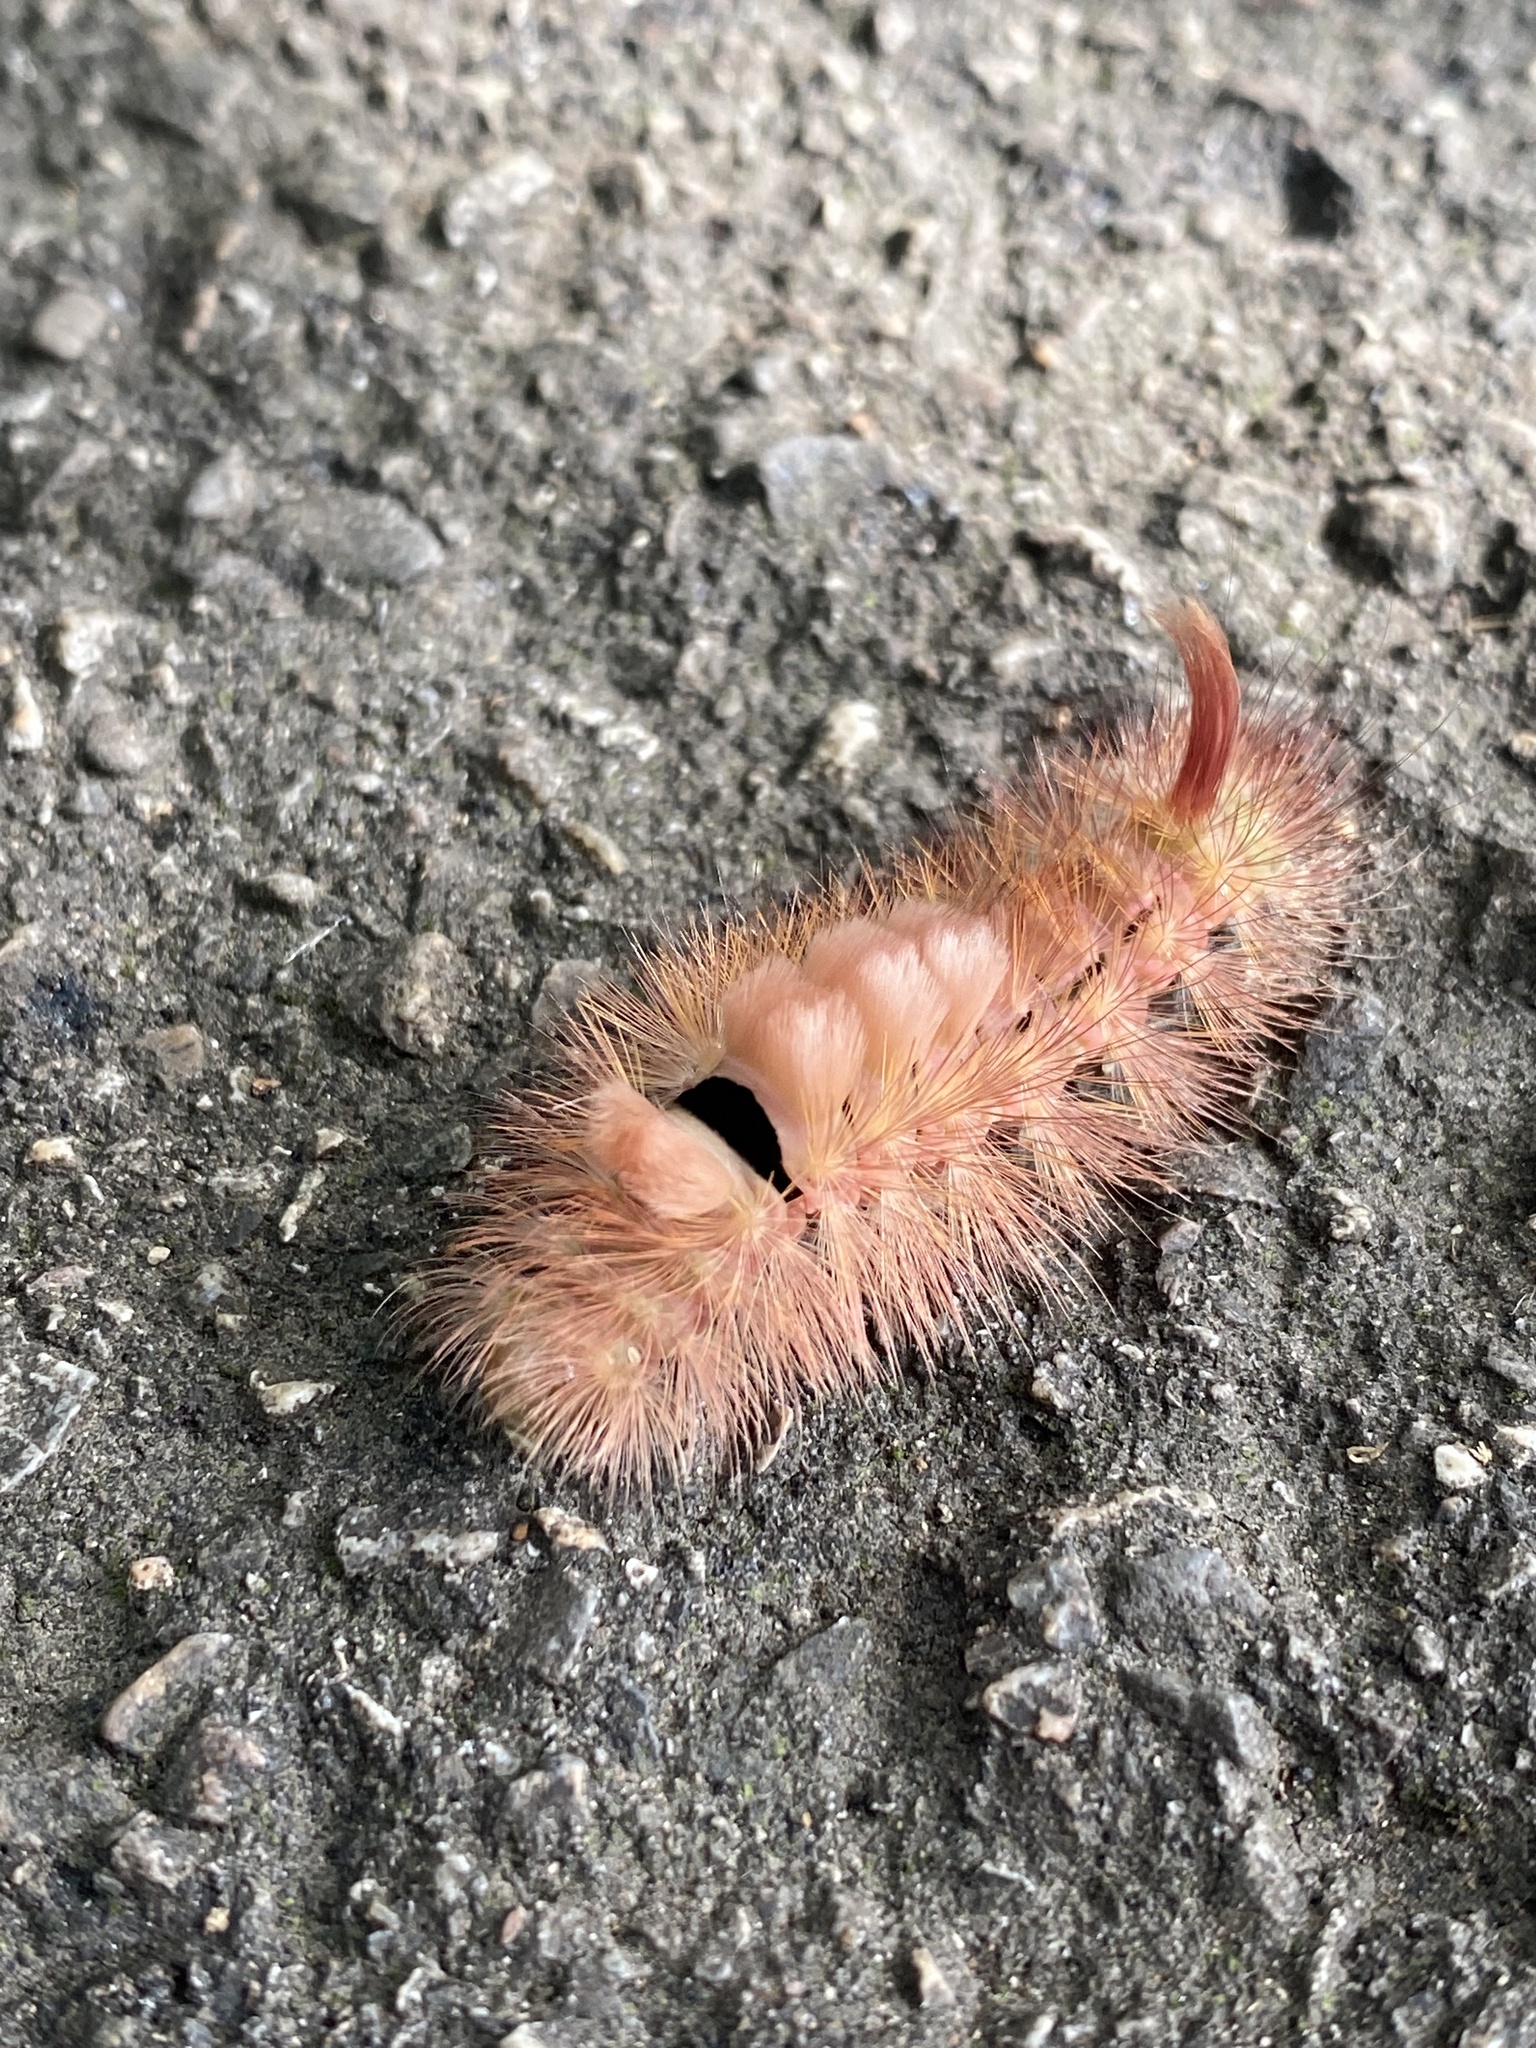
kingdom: Animalia
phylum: Arthropoda
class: Insecta
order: Lepidoptera
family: Erebidae
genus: Calliteara
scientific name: Calliteara pudibunda
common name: Pale tussock
